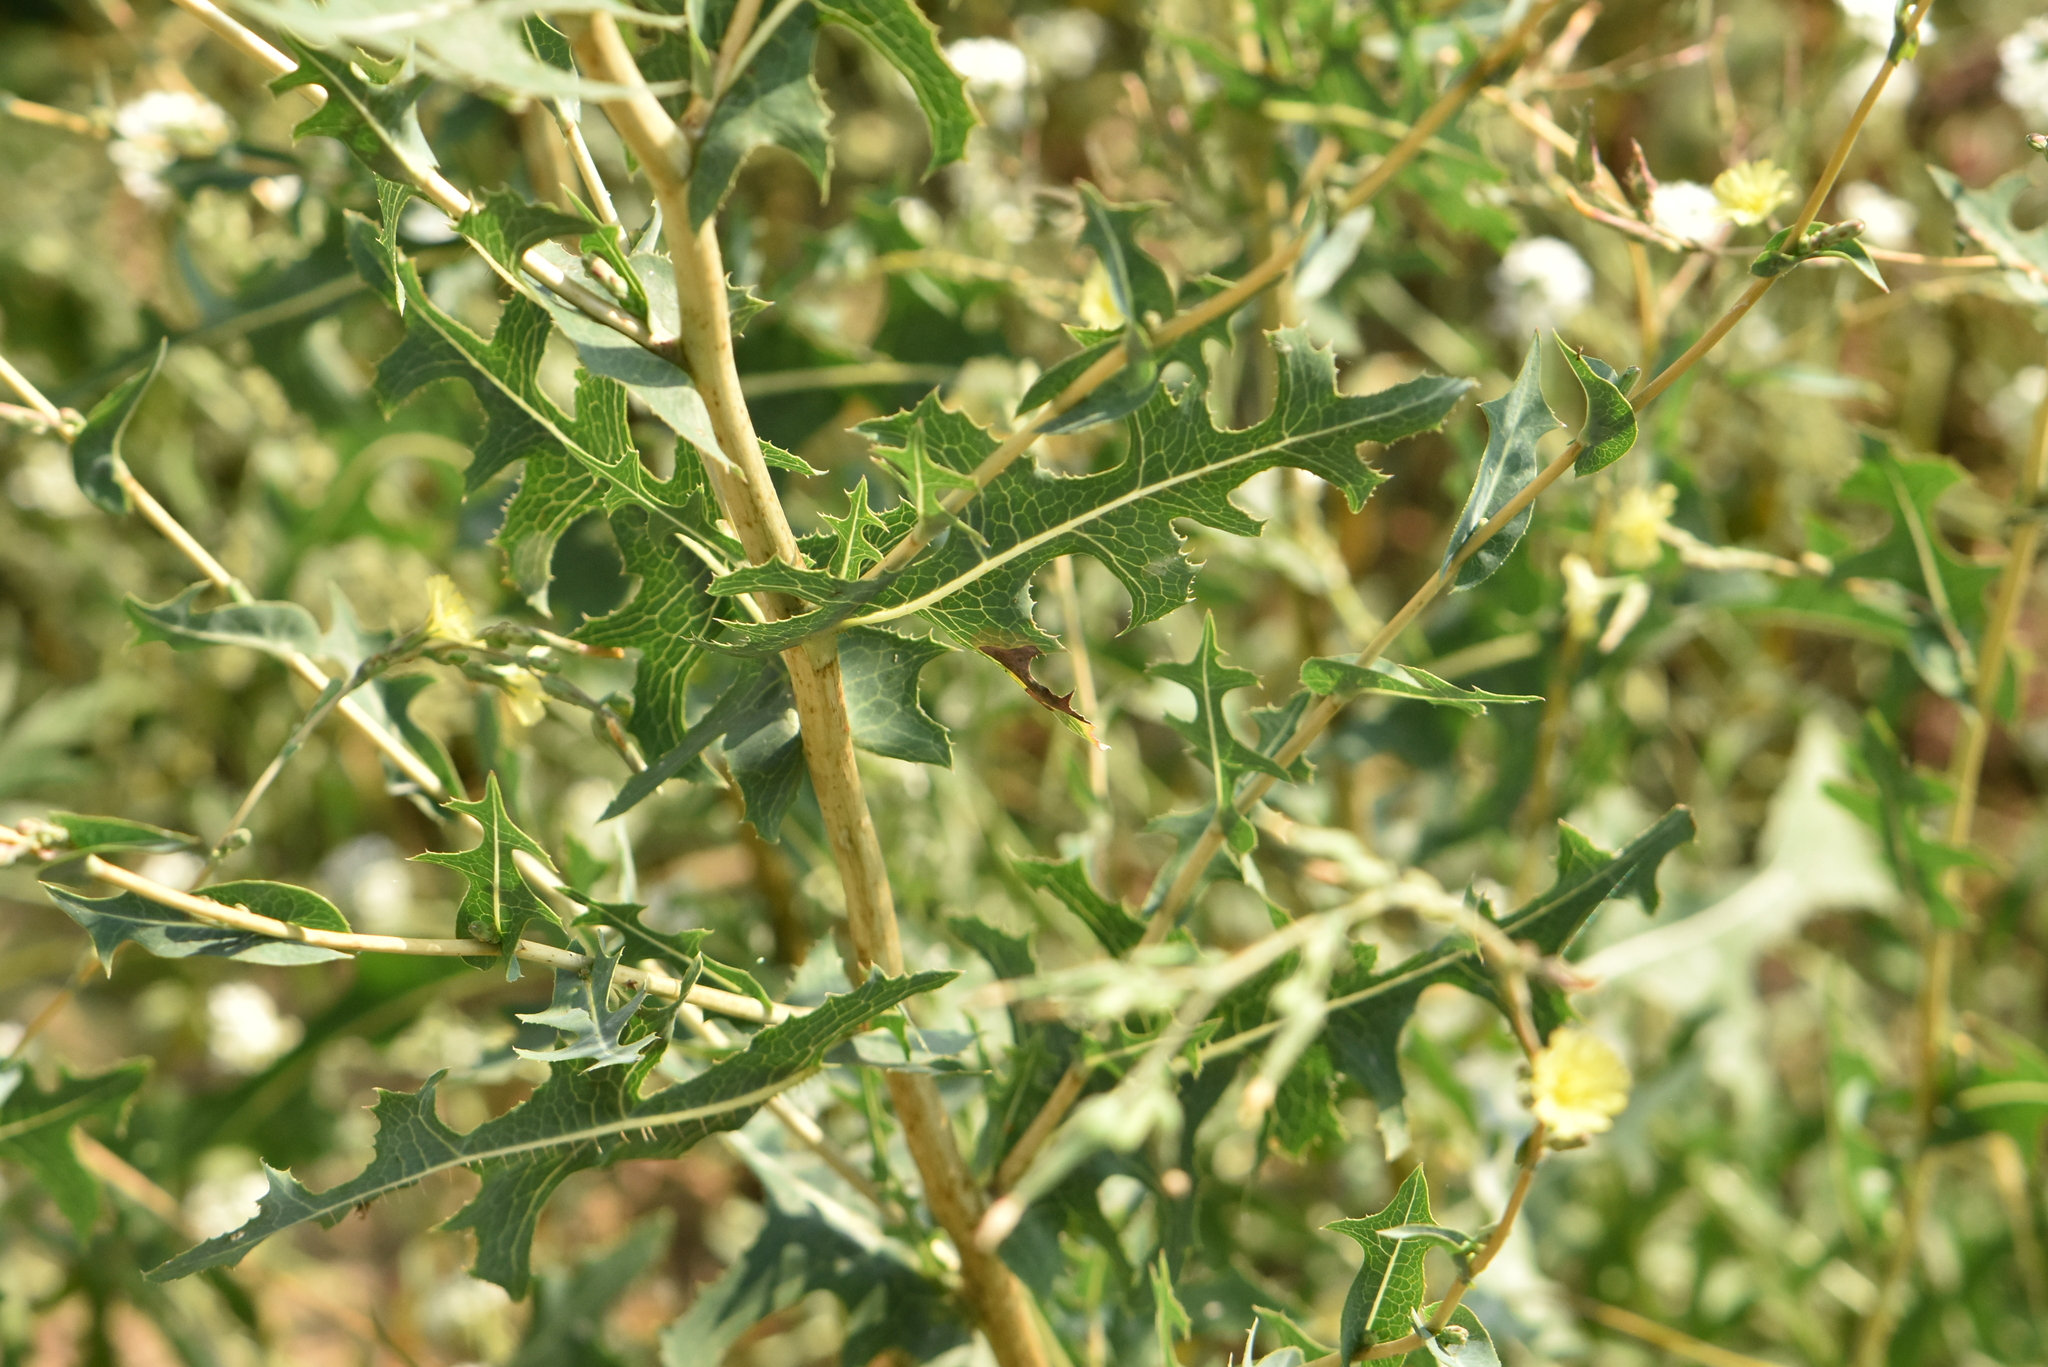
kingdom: Plantae
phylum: Tracheophyta
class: Magnoliopsida
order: Asterales
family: Asteraceae
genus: Lactuca
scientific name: Lactuca serriola
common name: Prickly lettuce
